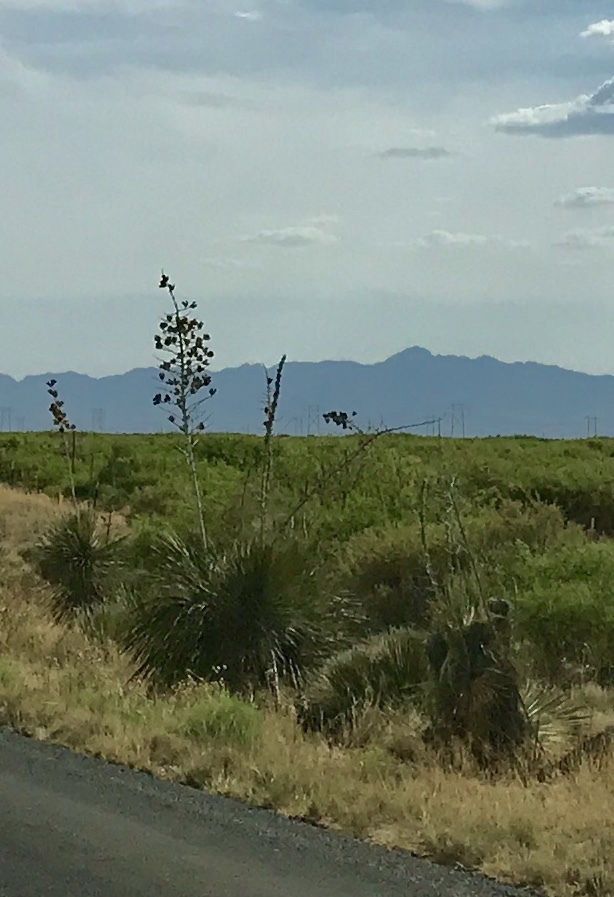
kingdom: Plantae
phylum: Tracheophyta
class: Liliopsida
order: Asparagales
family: Asparagaceae
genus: Yucca
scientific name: Yucca elata
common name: Palmella
